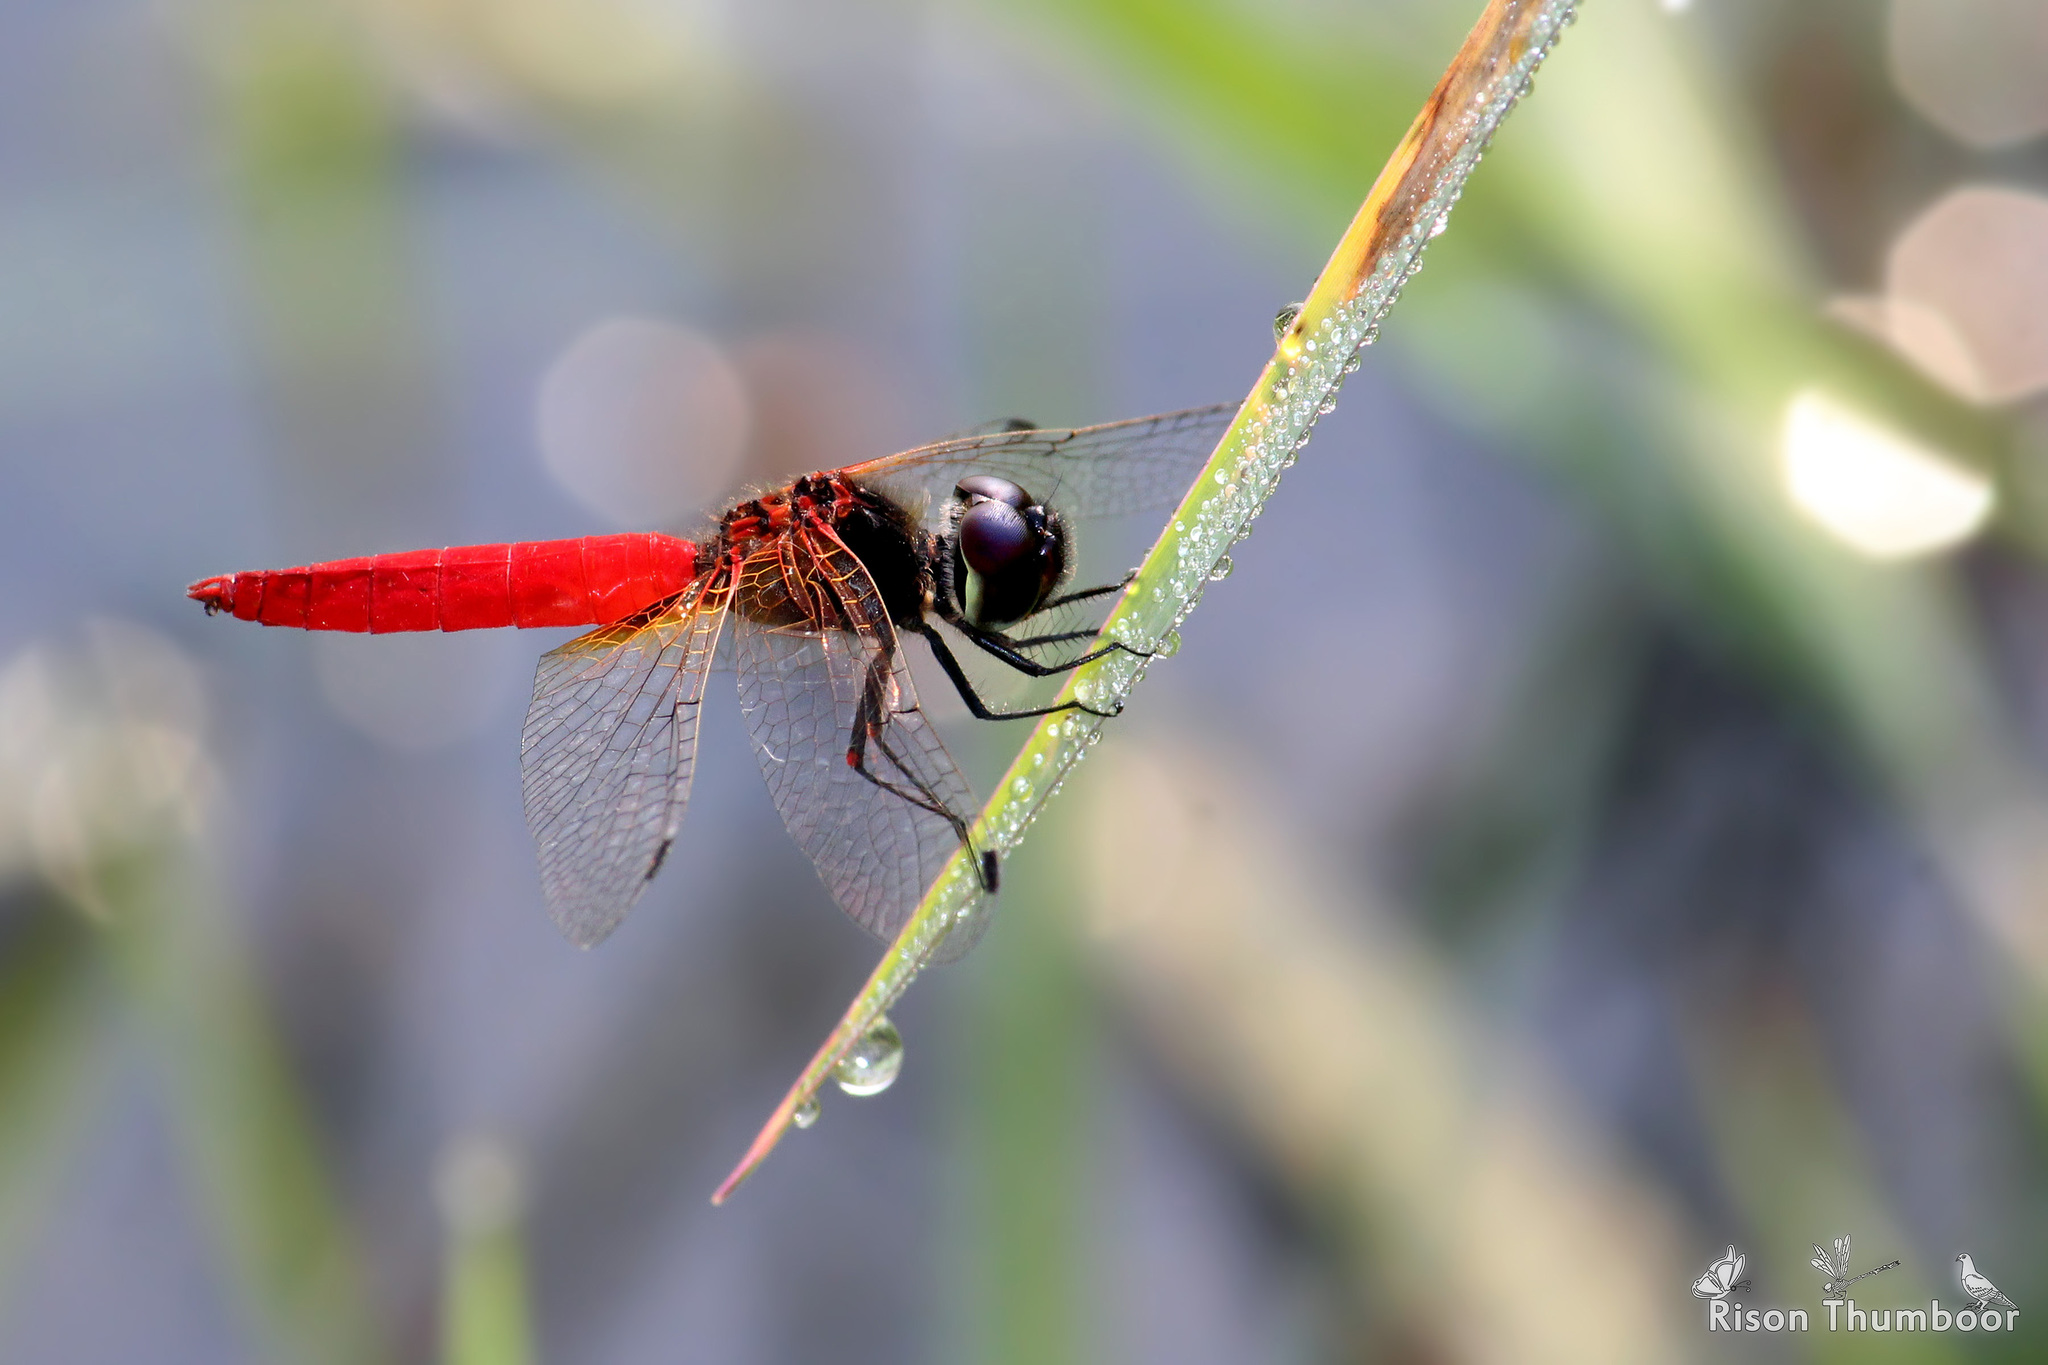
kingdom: Animalia
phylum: Arthropoda
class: Insecta
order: Odonata
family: Libellulidae
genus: Aethriamanta
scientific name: Aethriamanta brevipennis
